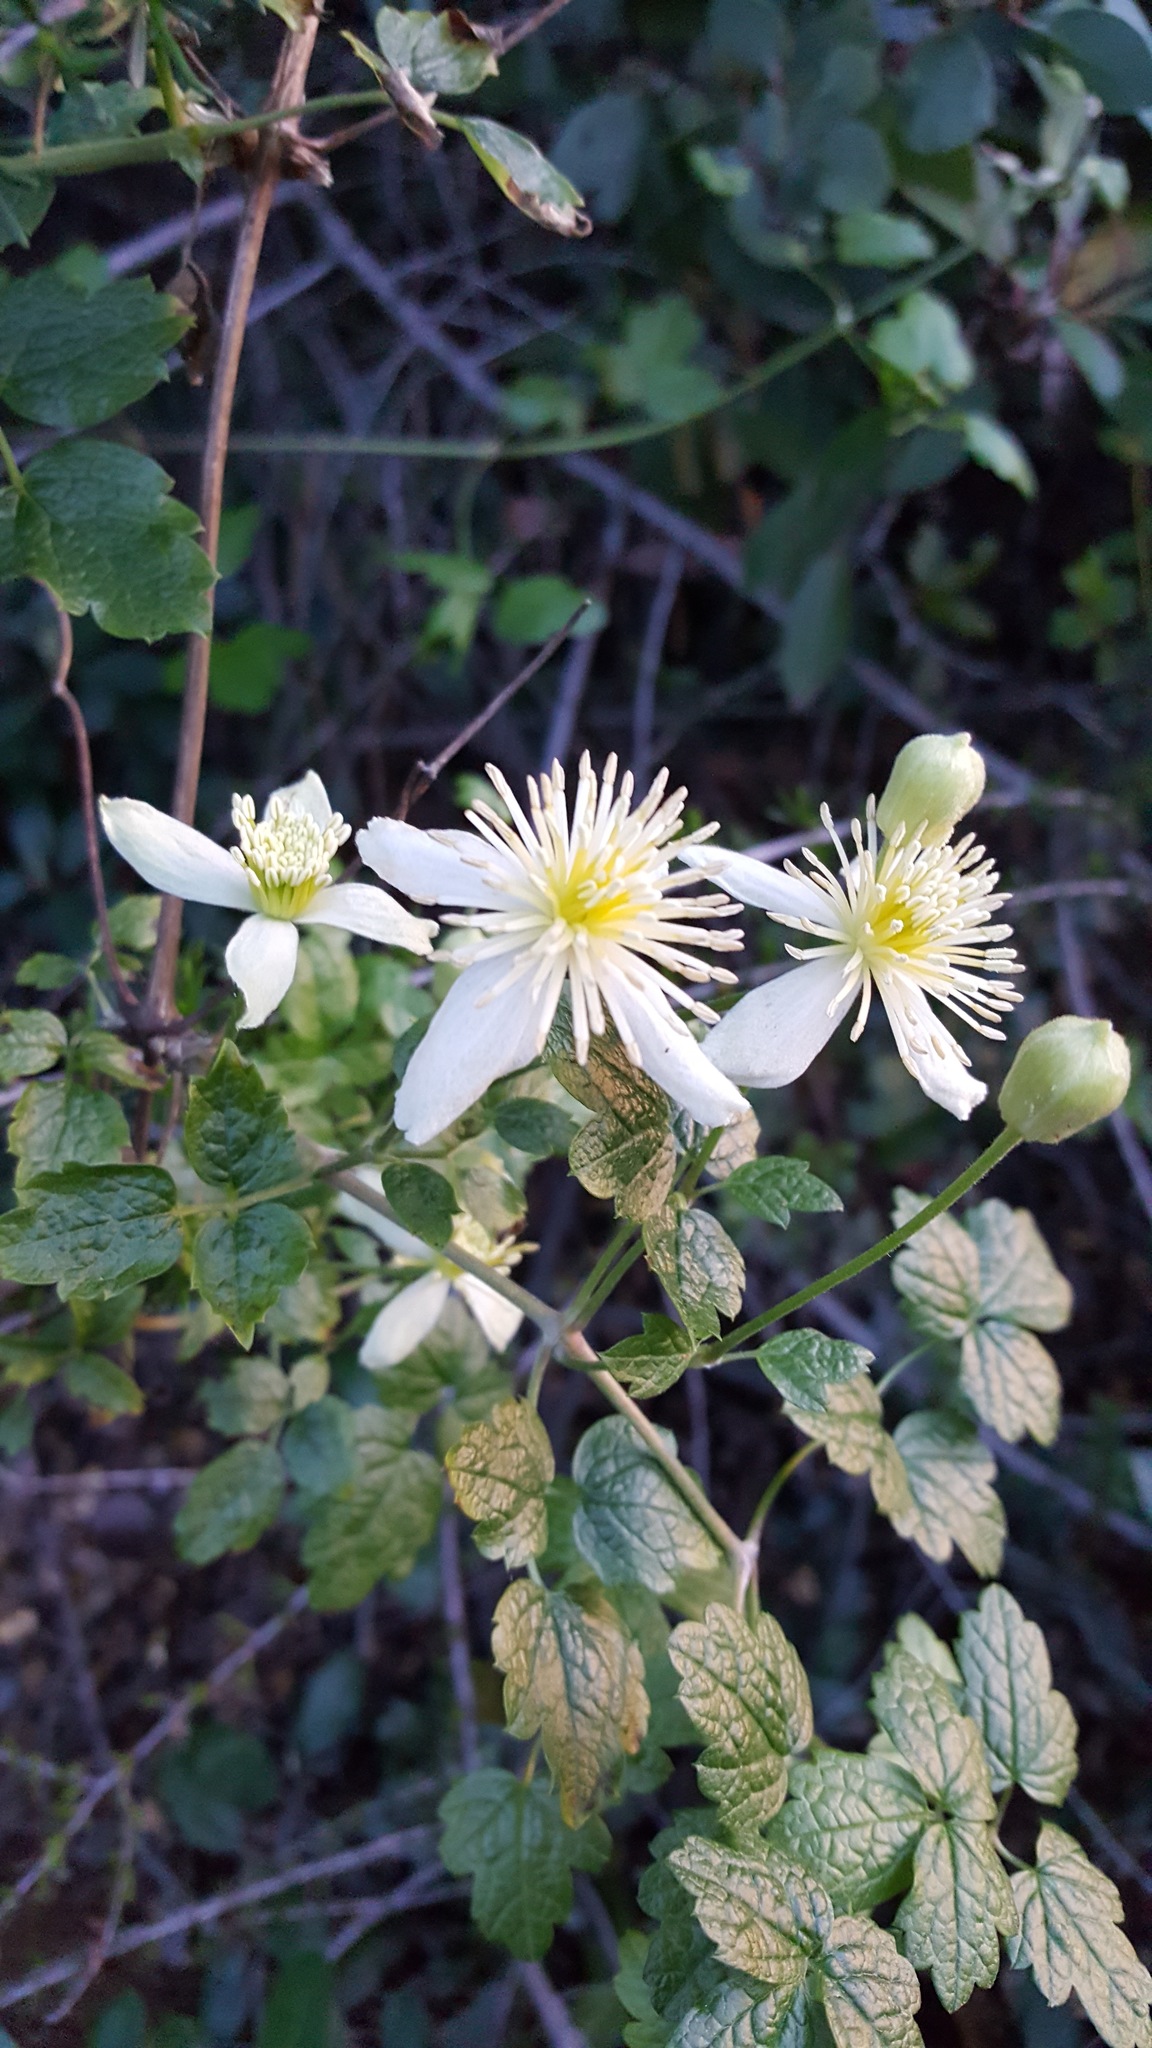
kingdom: Plantae
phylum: Tracheophyta
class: Magnoliopsida
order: Ranunculales
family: Ranunculaceae
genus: Clematis
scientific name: Clematis lasiantha
